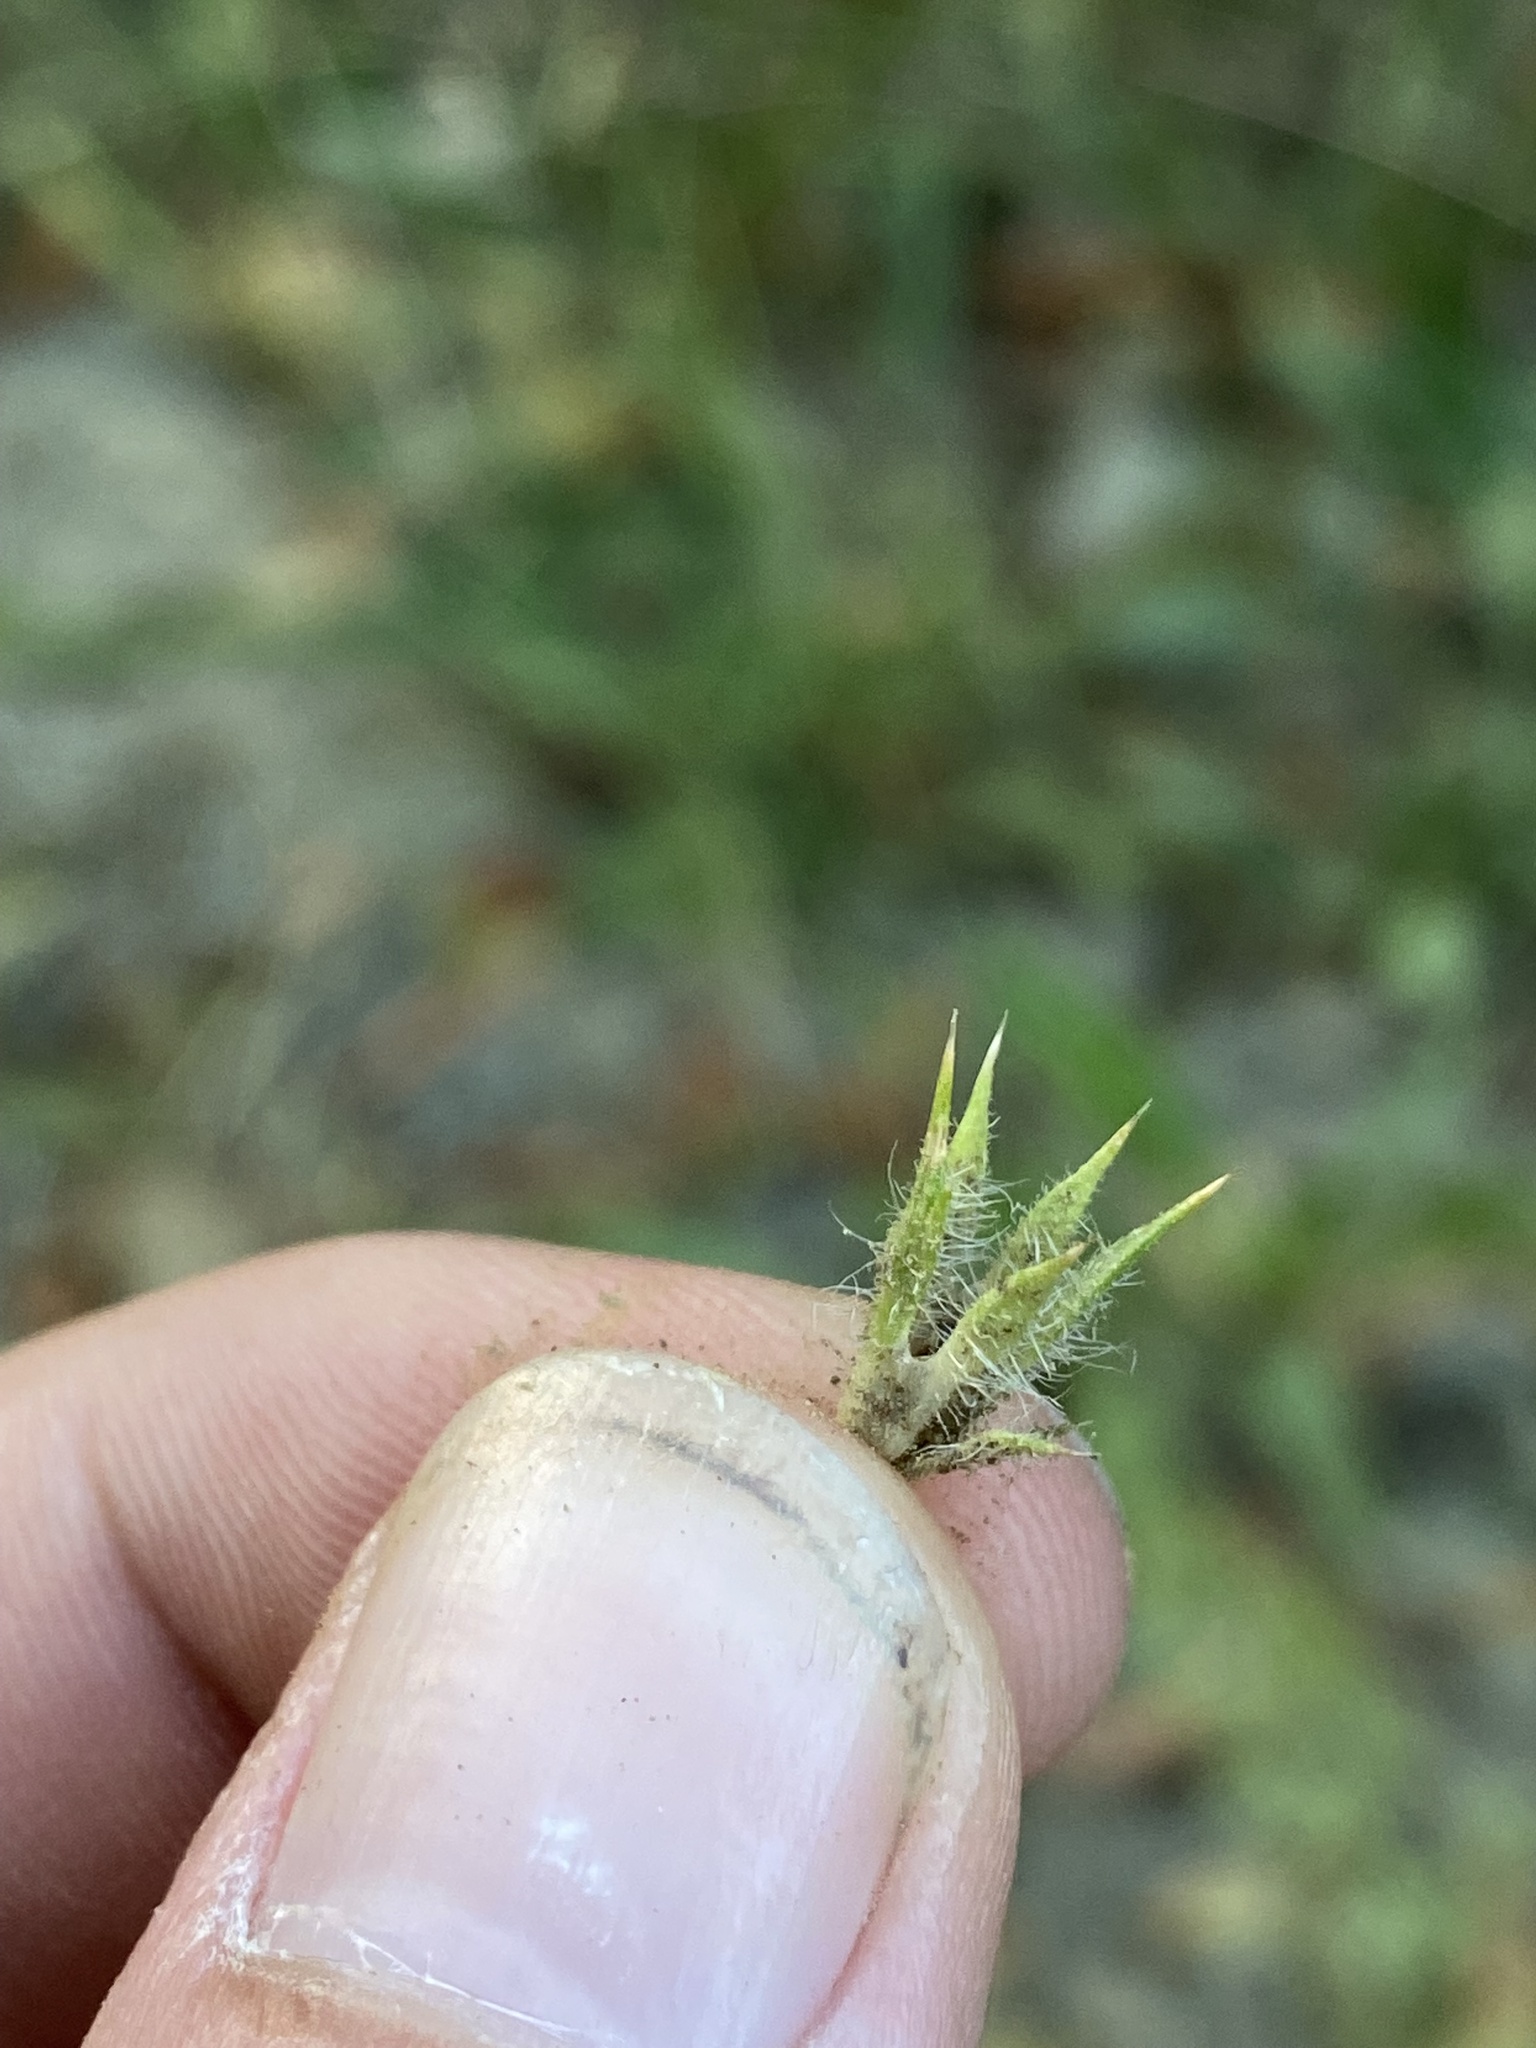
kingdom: Plantae
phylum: Tracheophyta
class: Magnoliopsida
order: Ericales
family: Polemoniaceae
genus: Navarretia
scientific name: Navarretia squarrosa
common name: Skunkweed
